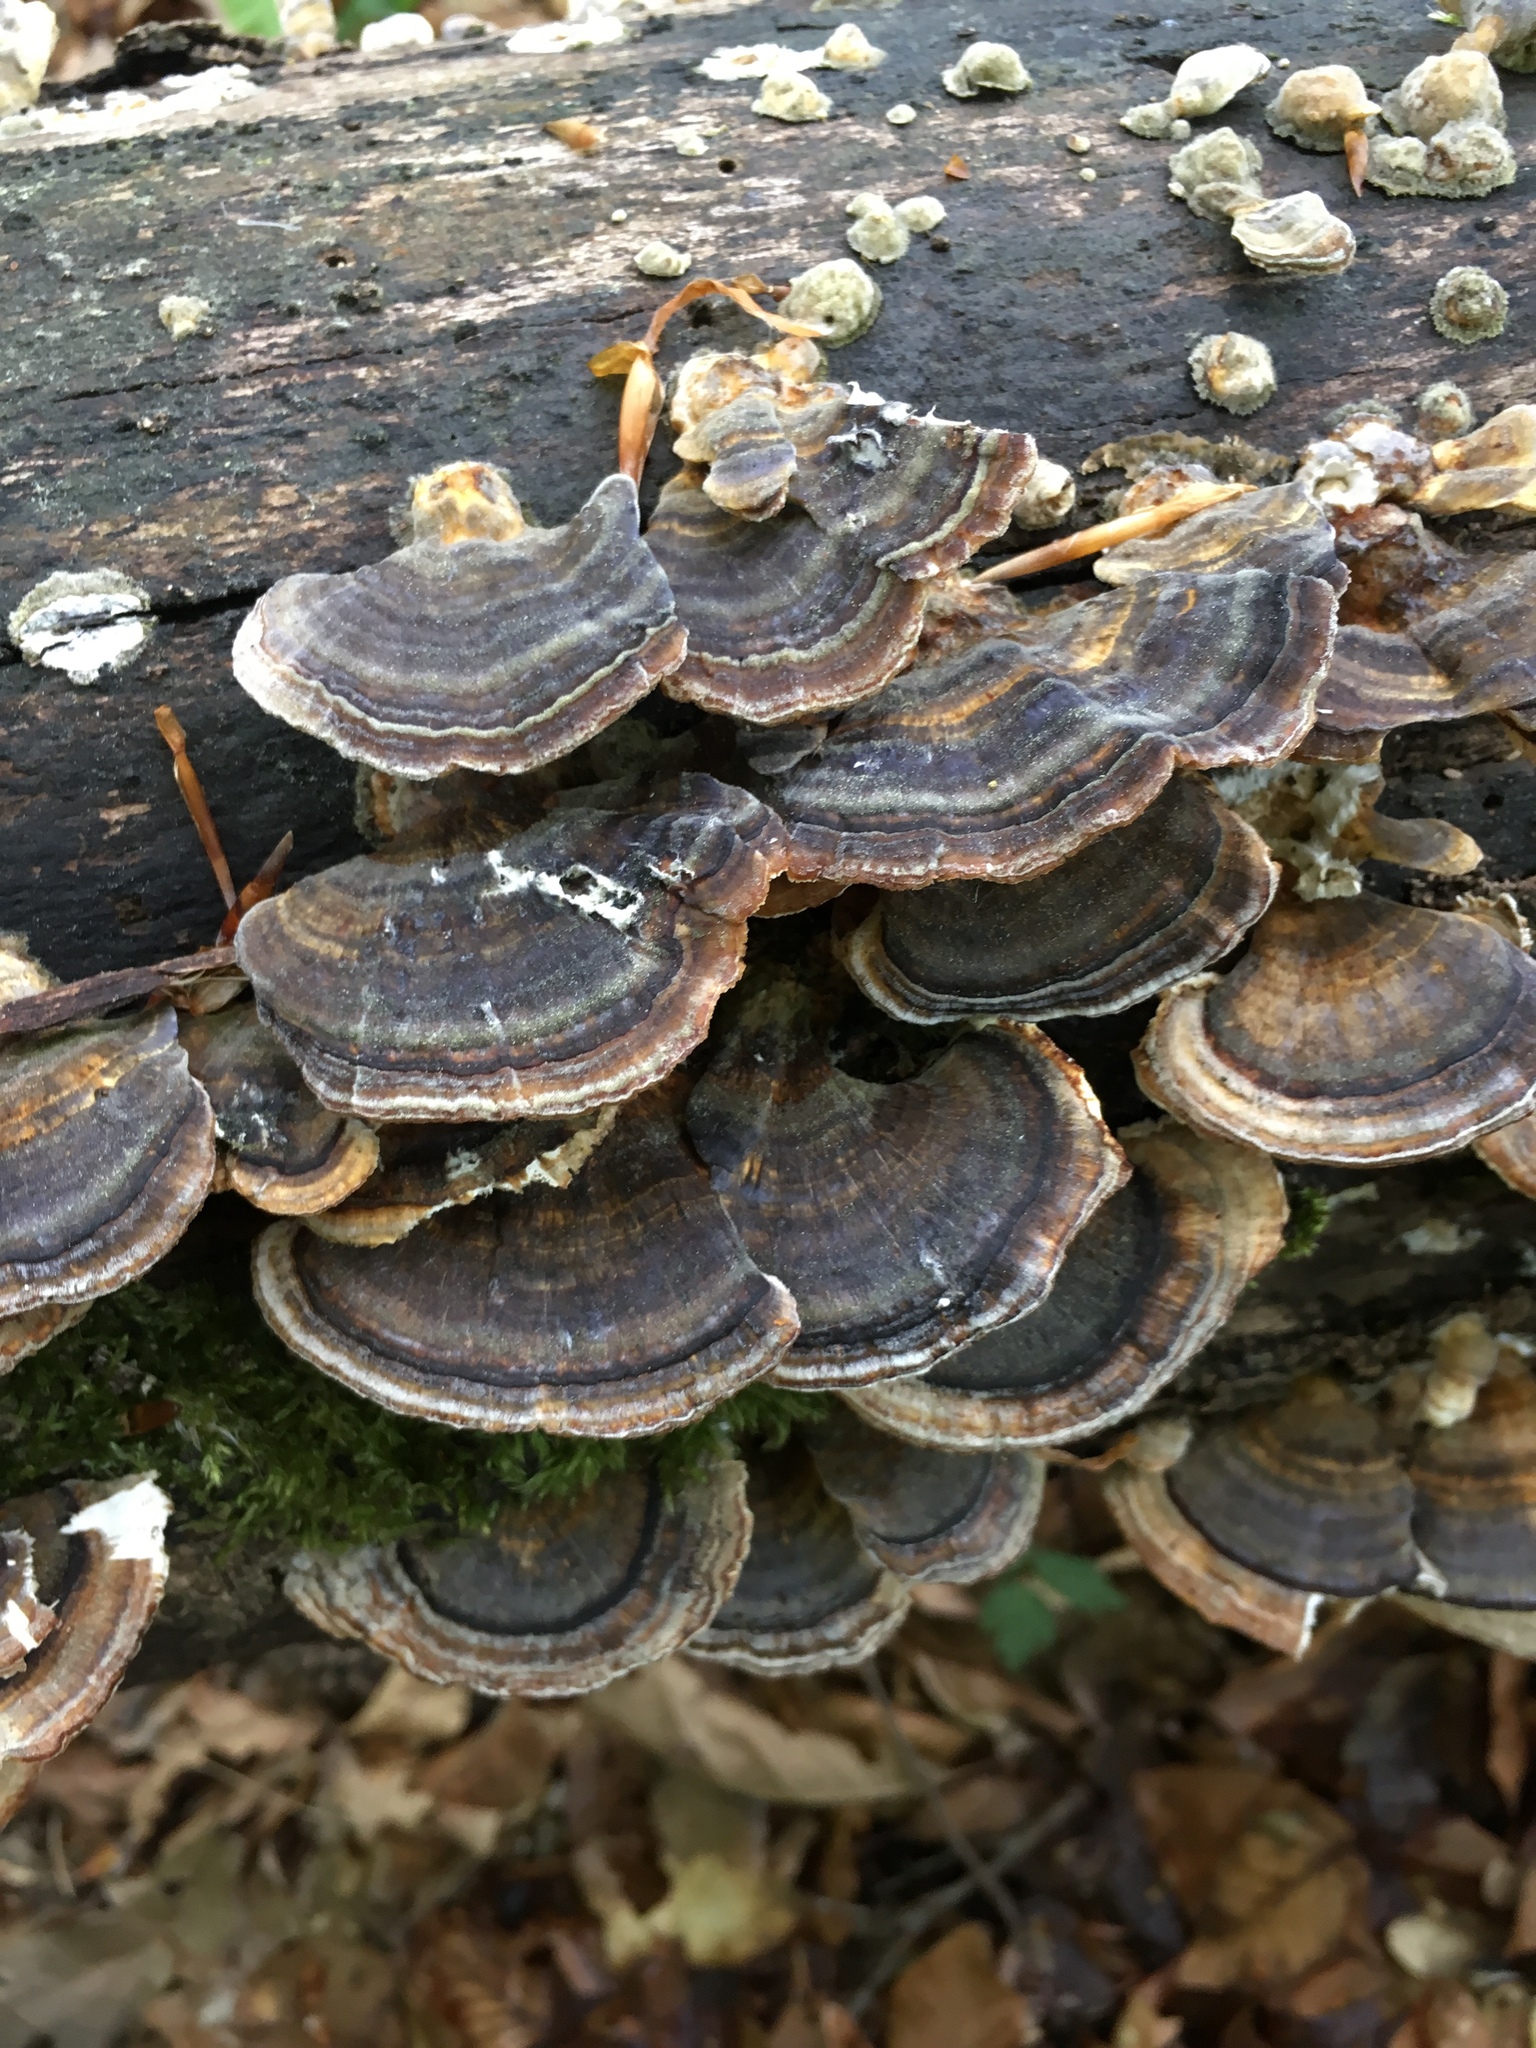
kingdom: Fungi
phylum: Basidiomycota
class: Agaricomycetes
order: Polyporales
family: Polyporaceae
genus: Trametes
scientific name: Trametes versicolor
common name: Turkeytail
